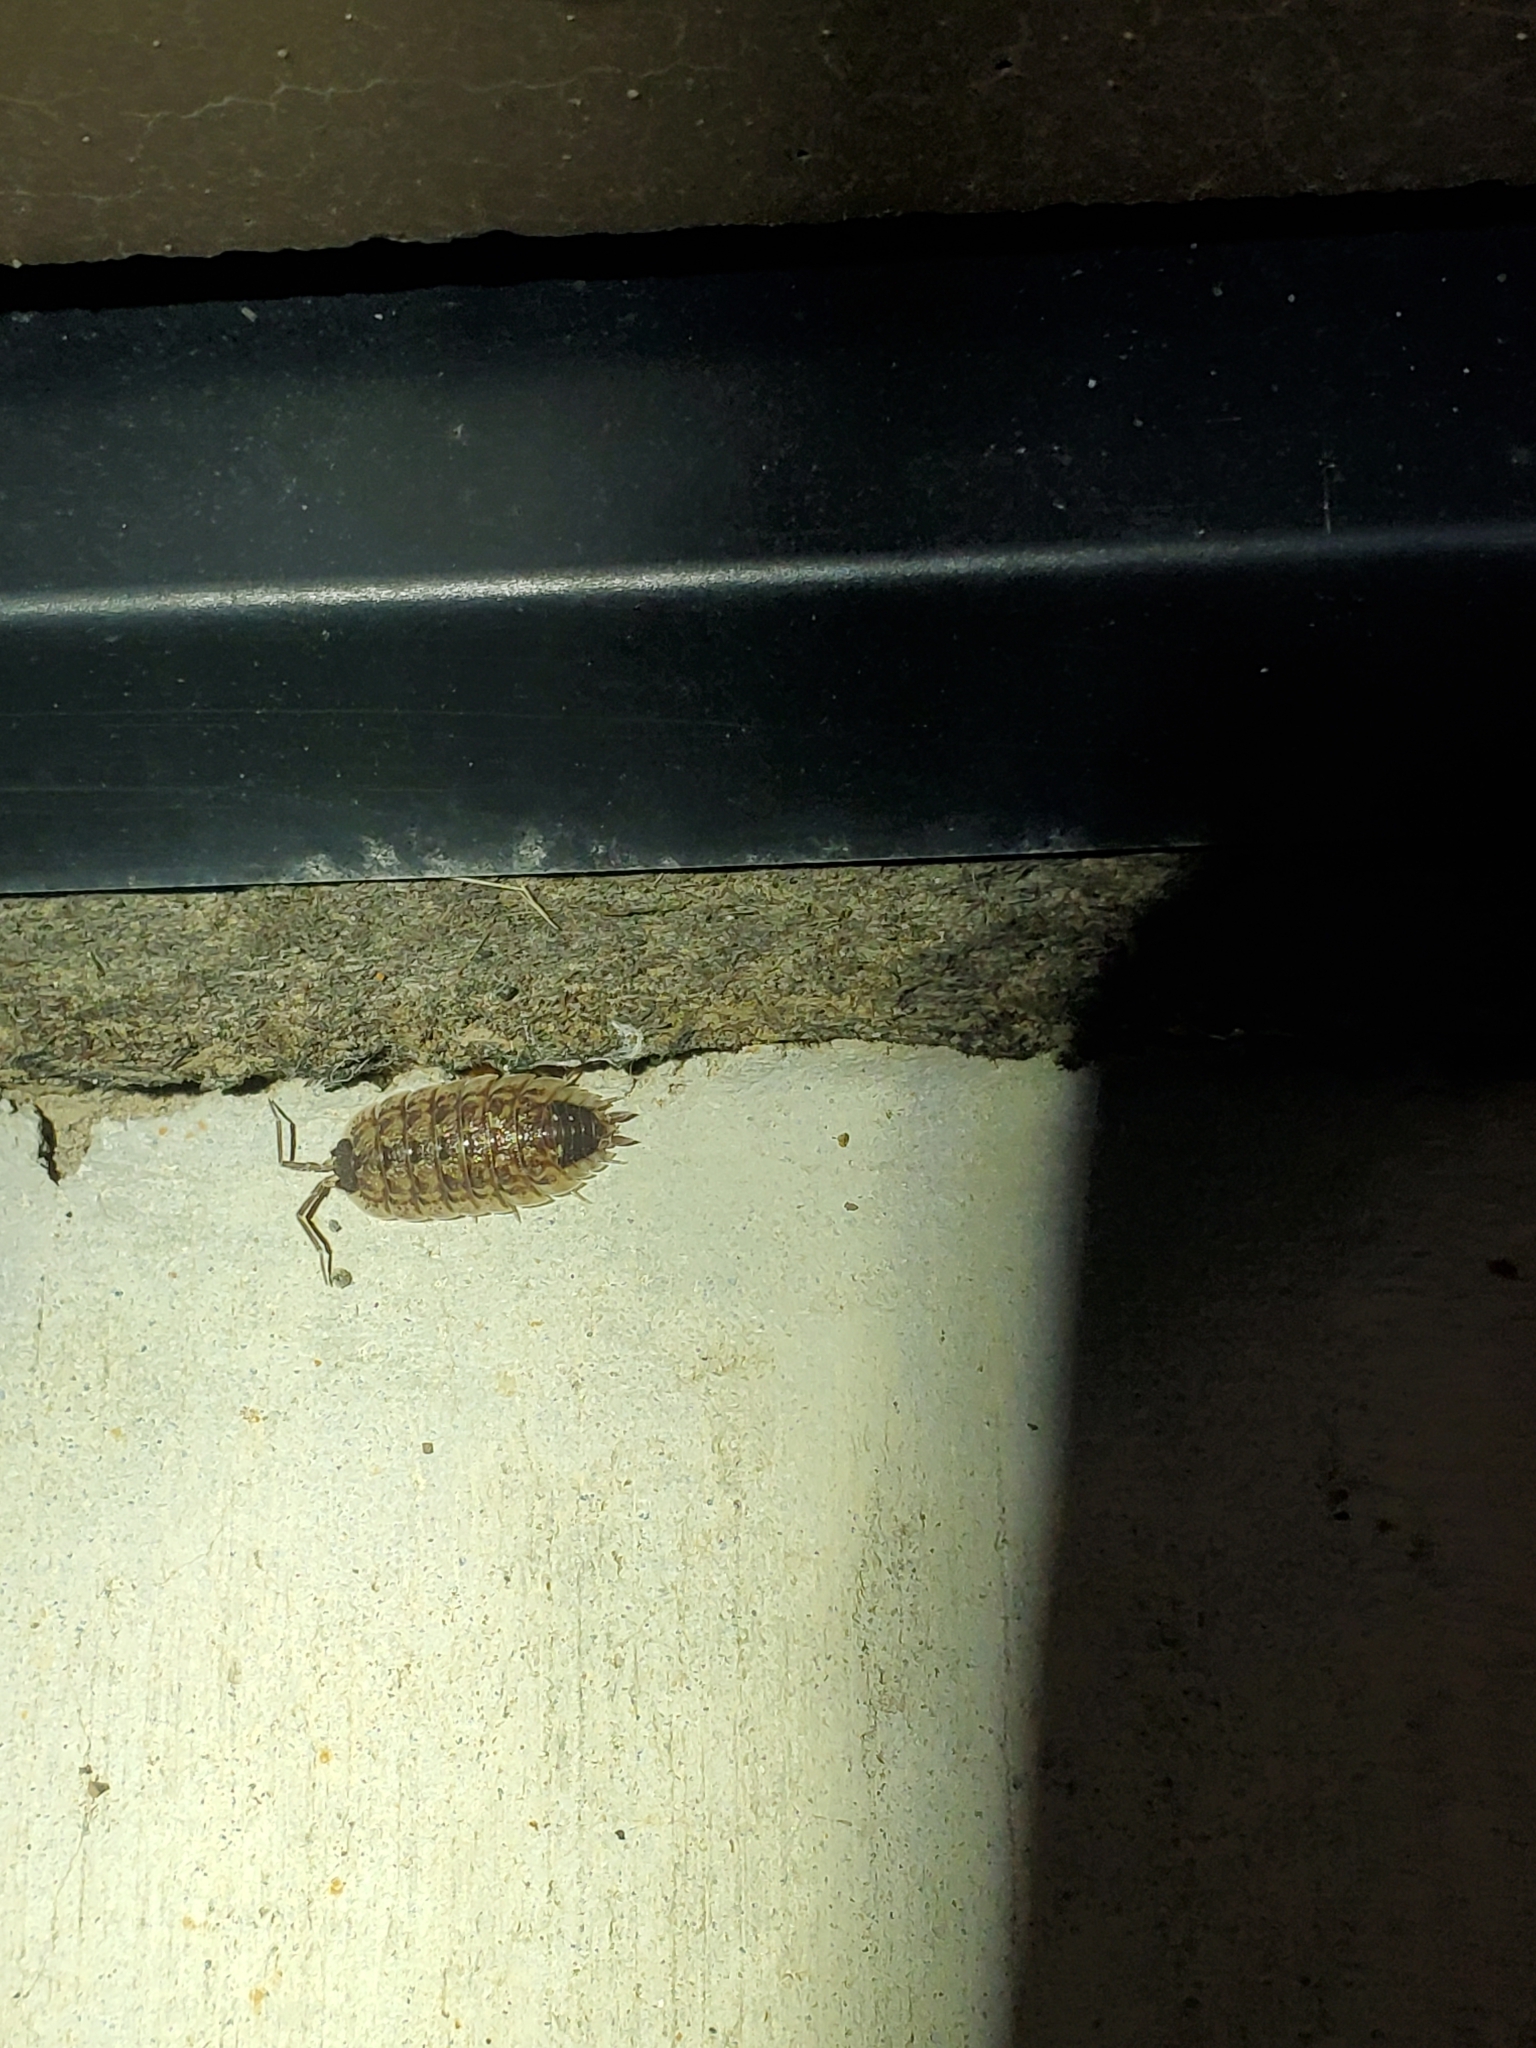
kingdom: Animalia
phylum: Arthropoda
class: Malacostraca
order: Isopoda
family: Porcellionidae
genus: Porcellio
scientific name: Porcellio spinicornis
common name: Painted woodlouse
